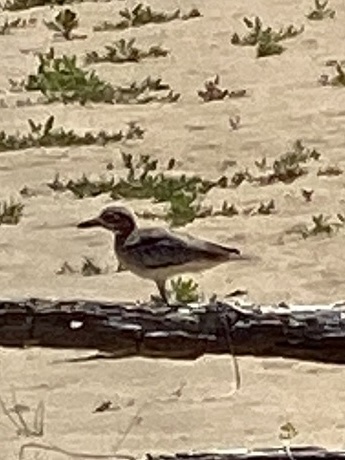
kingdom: Animalia
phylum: Chordata
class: Aves
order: Charadriiformes
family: Burhinidae
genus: Burhinus
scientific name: Burhinus vermiculatus
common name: Water thick-knee
